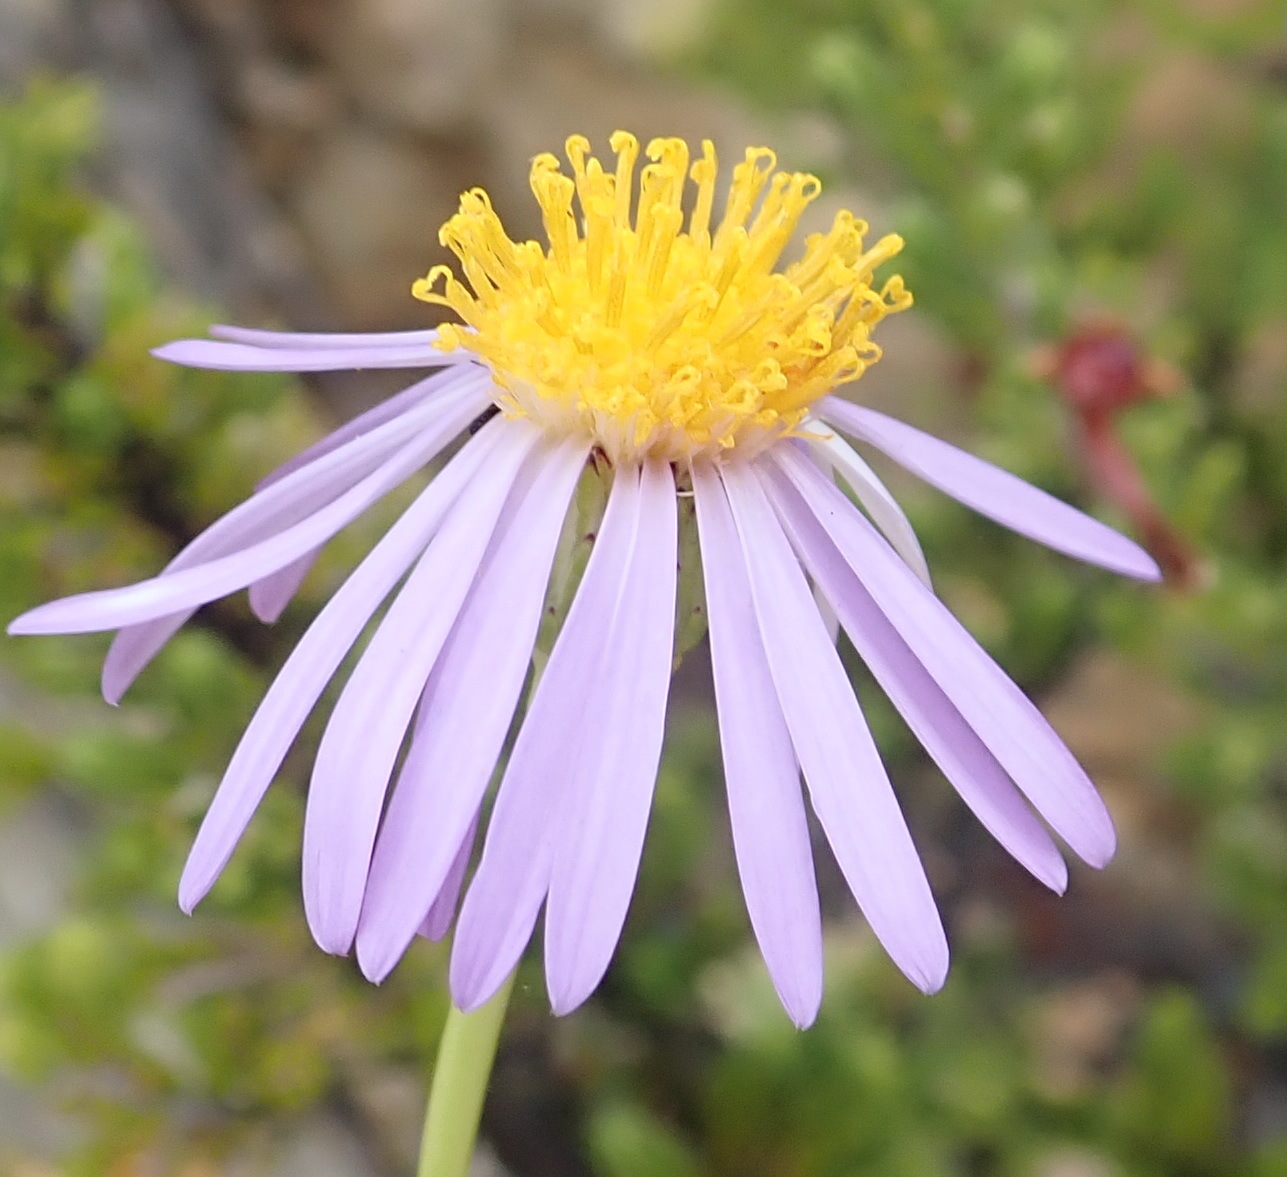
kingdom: Plantae
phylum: Tracheophyta
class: Magnoliopsida
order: Asterales
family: Asteraceae
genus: Felicia
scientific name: Felicia filifolia
